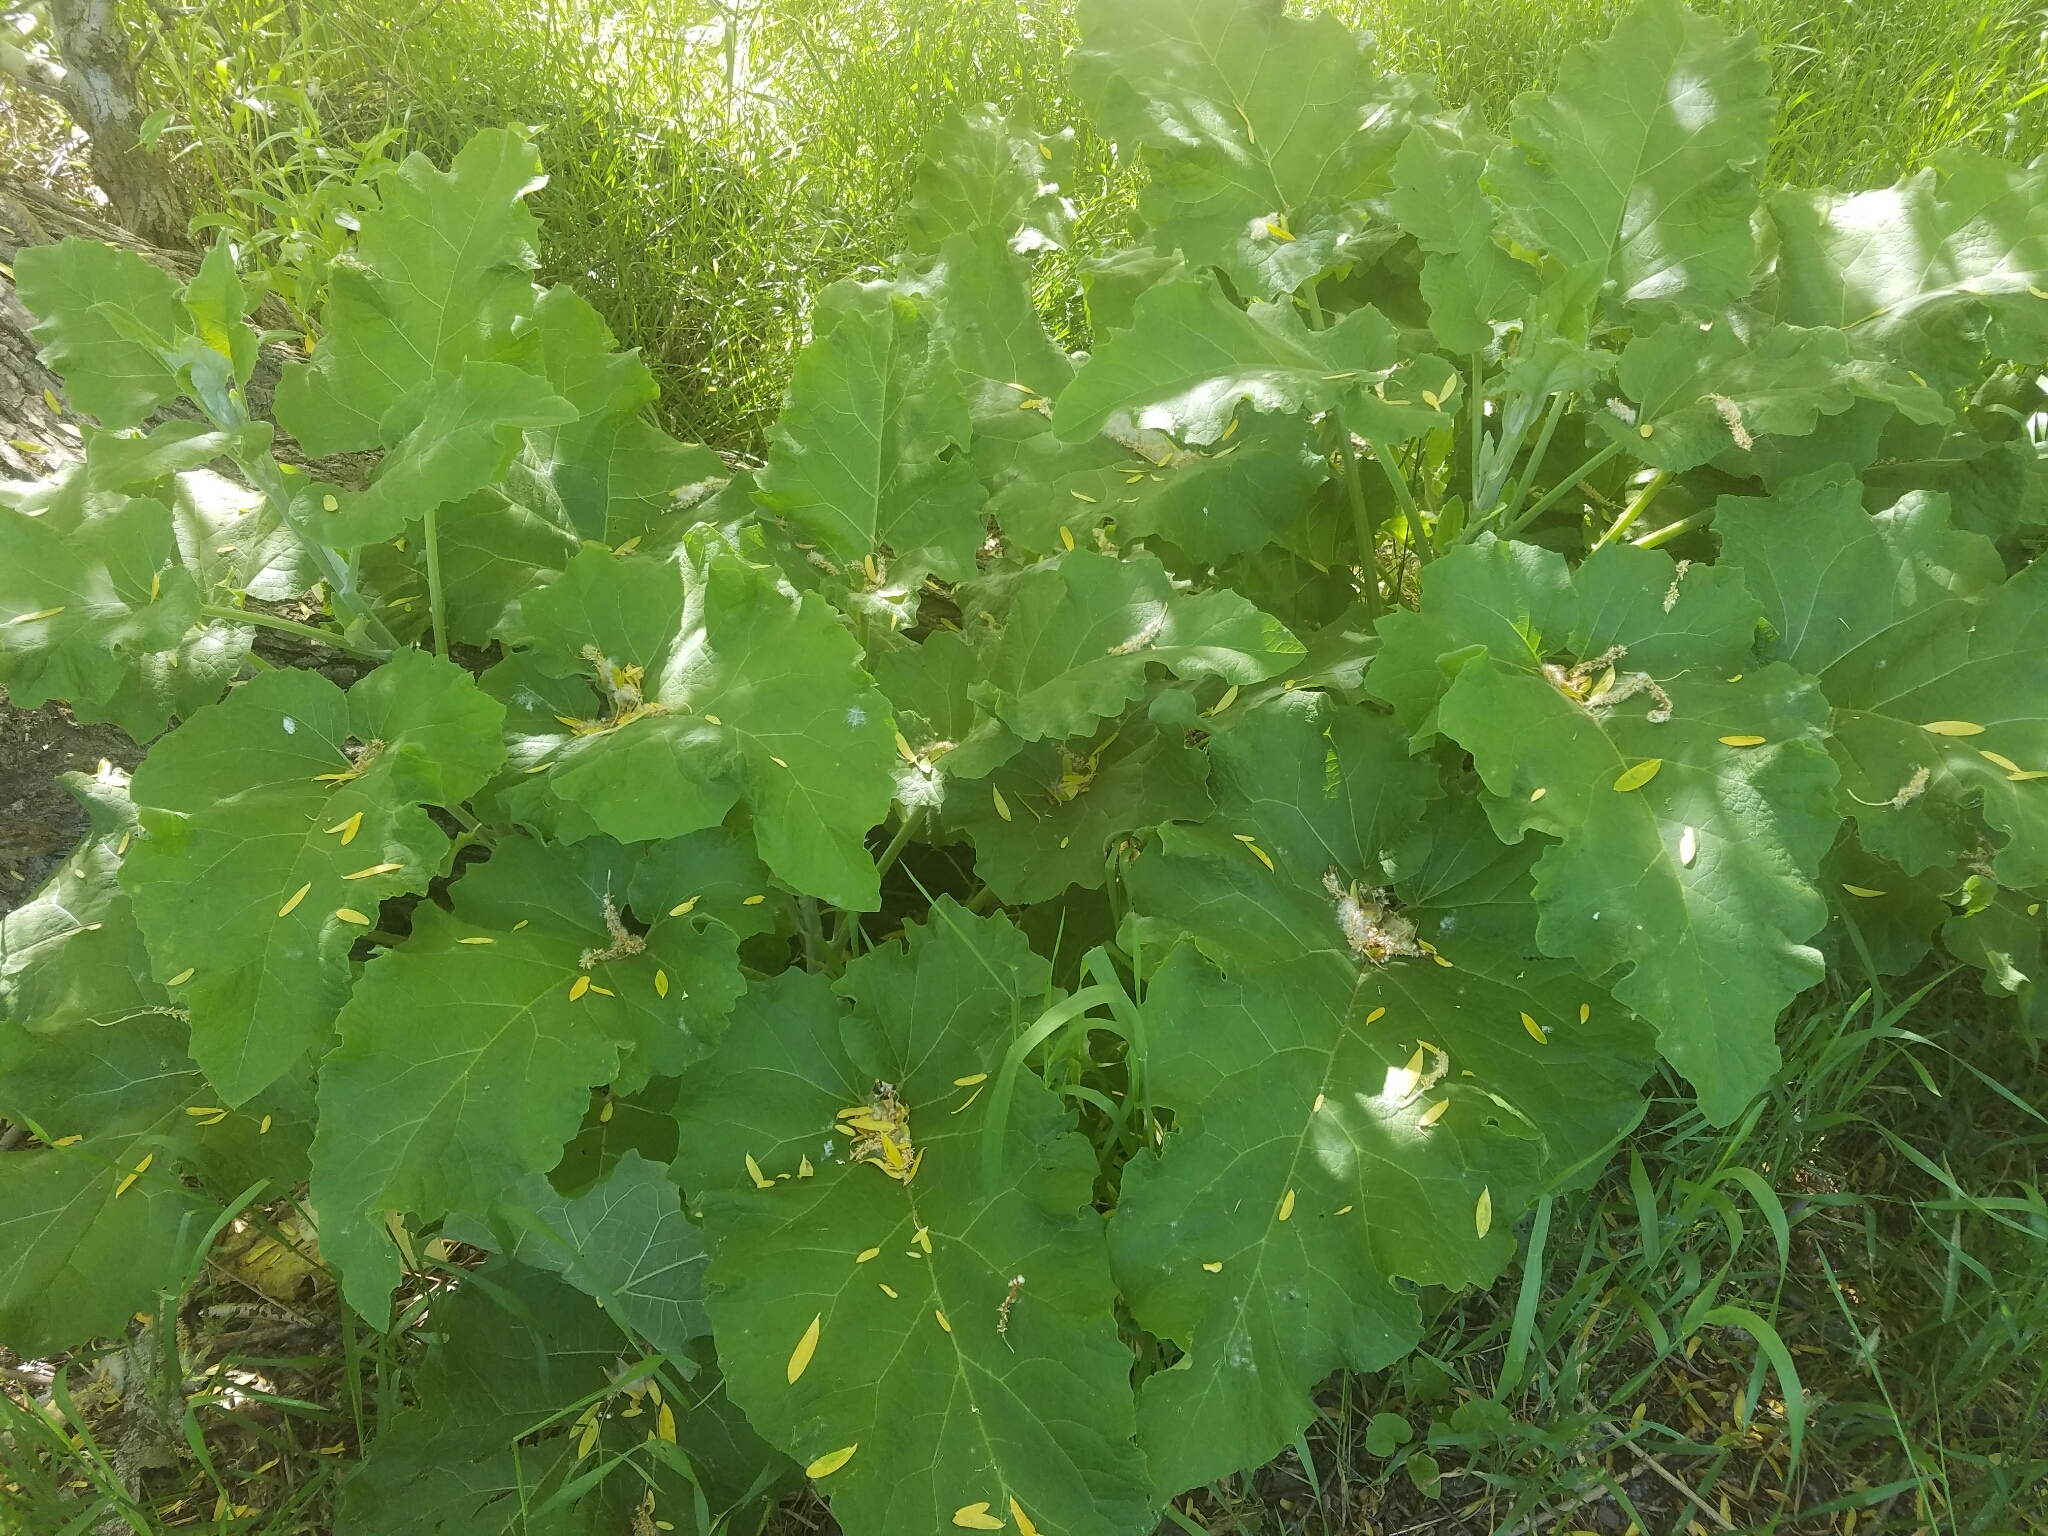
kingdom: Plantae
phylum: Tracheophyta
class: Magnoliopsida
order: Asterales
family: Asteraceae
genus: Arctium
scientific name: Arctium minus
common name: Lesser burdock
